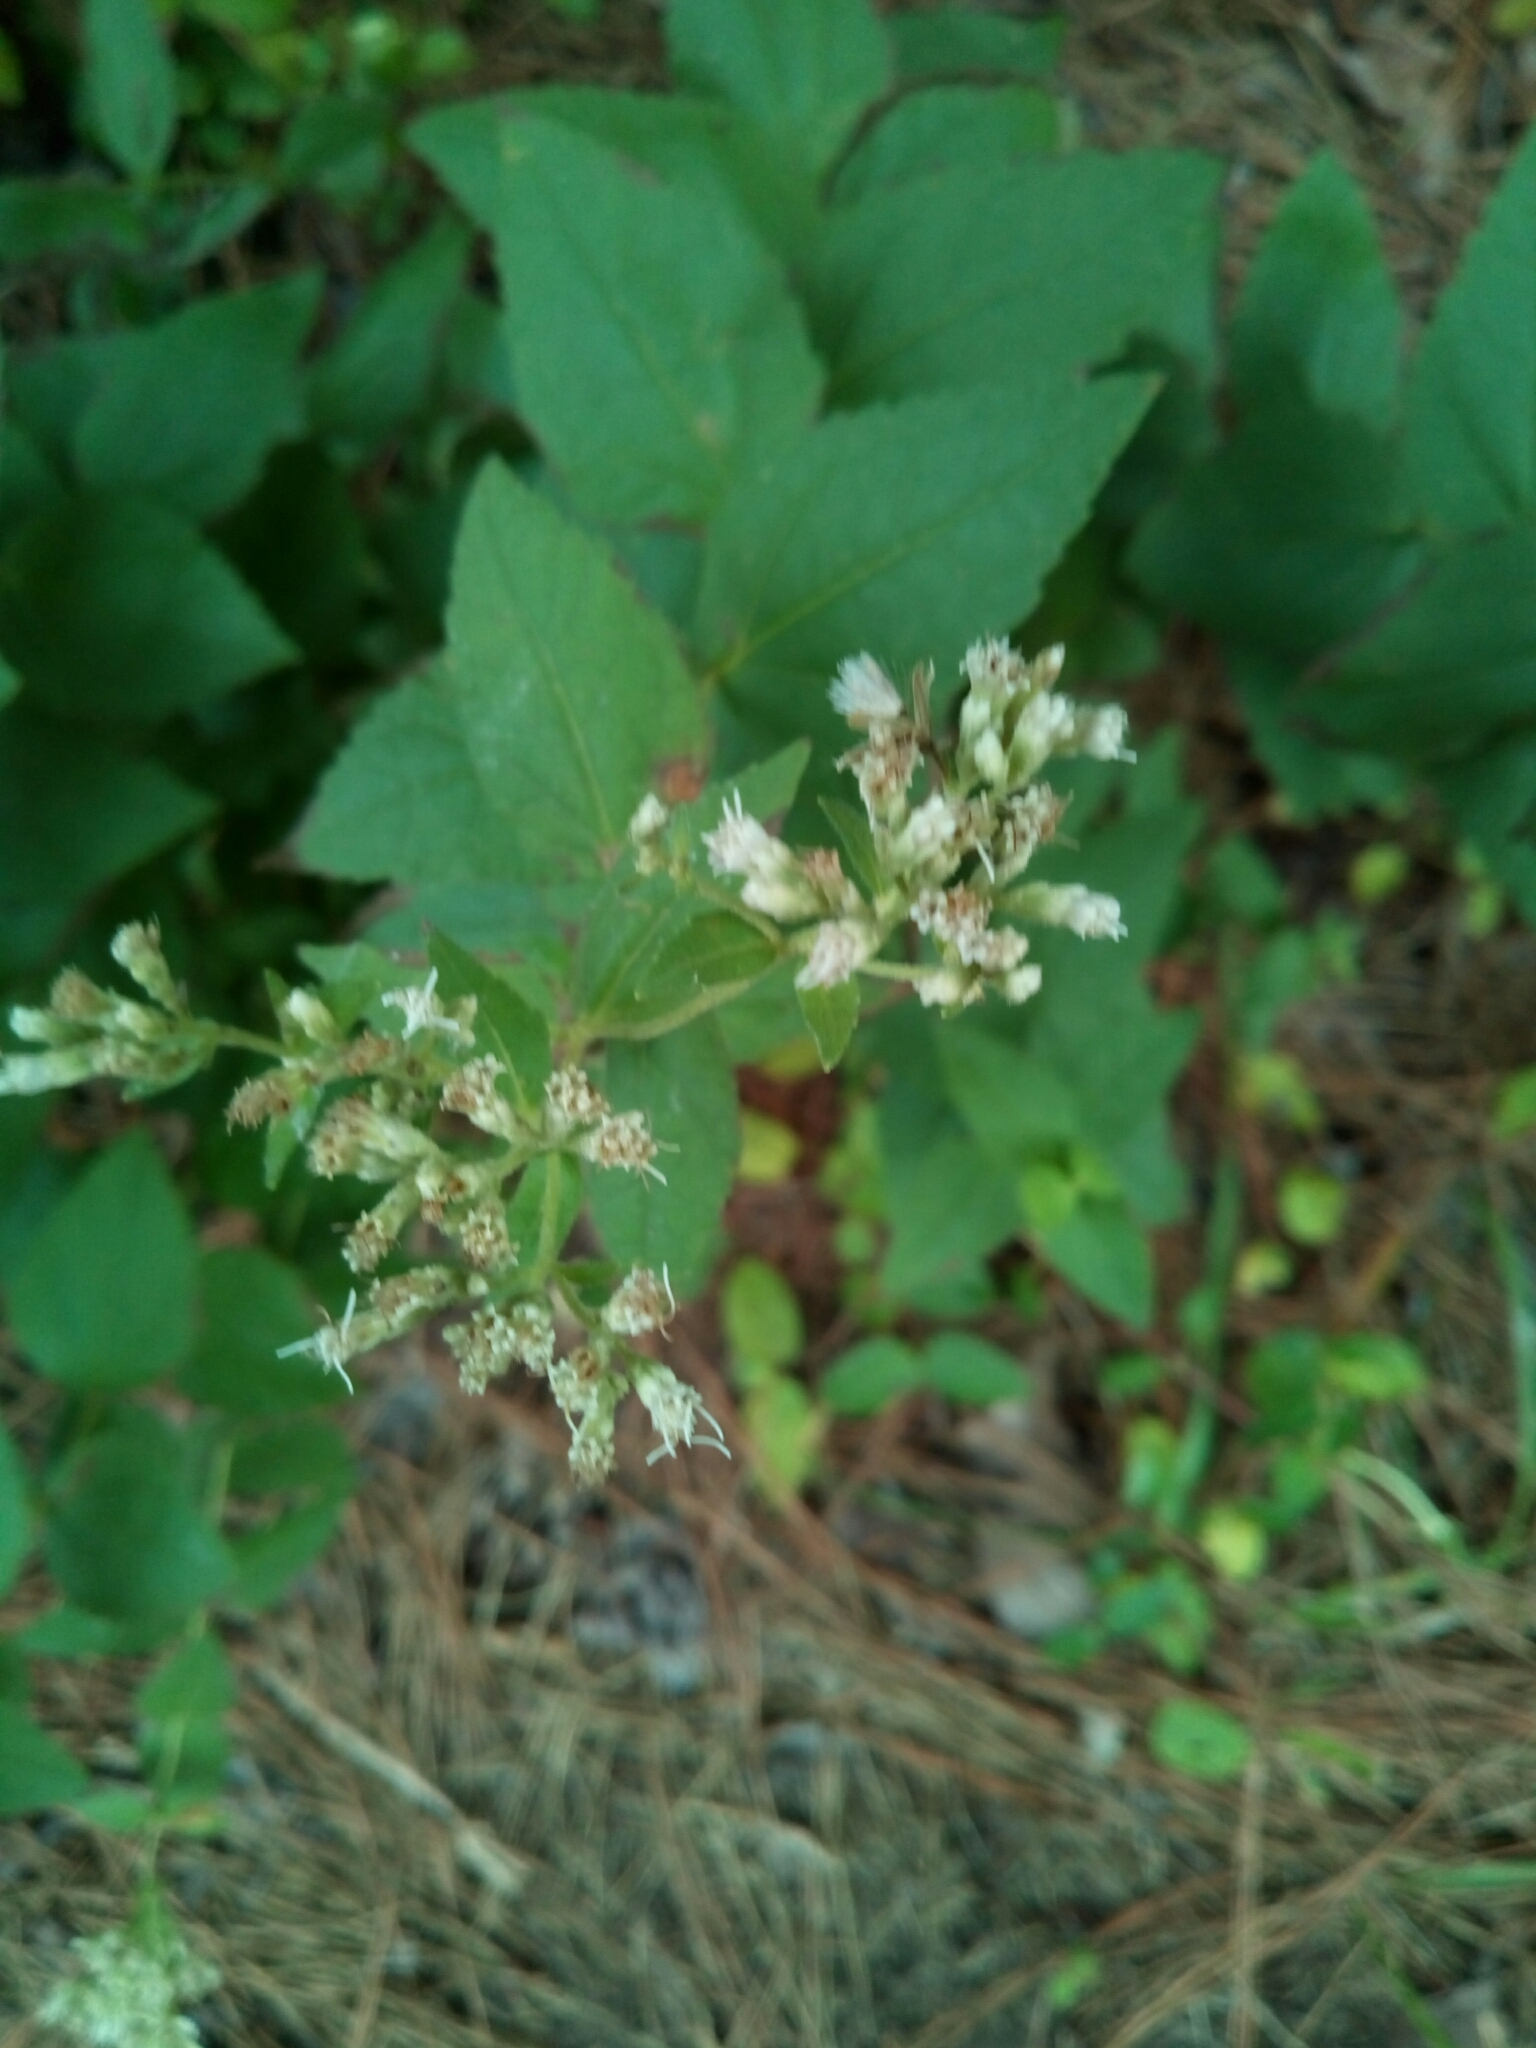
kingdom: Plantae
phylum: Tracheophyta
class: Magnoliopsida
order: Asterales
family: Asteraceae
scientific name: Asteraceae
